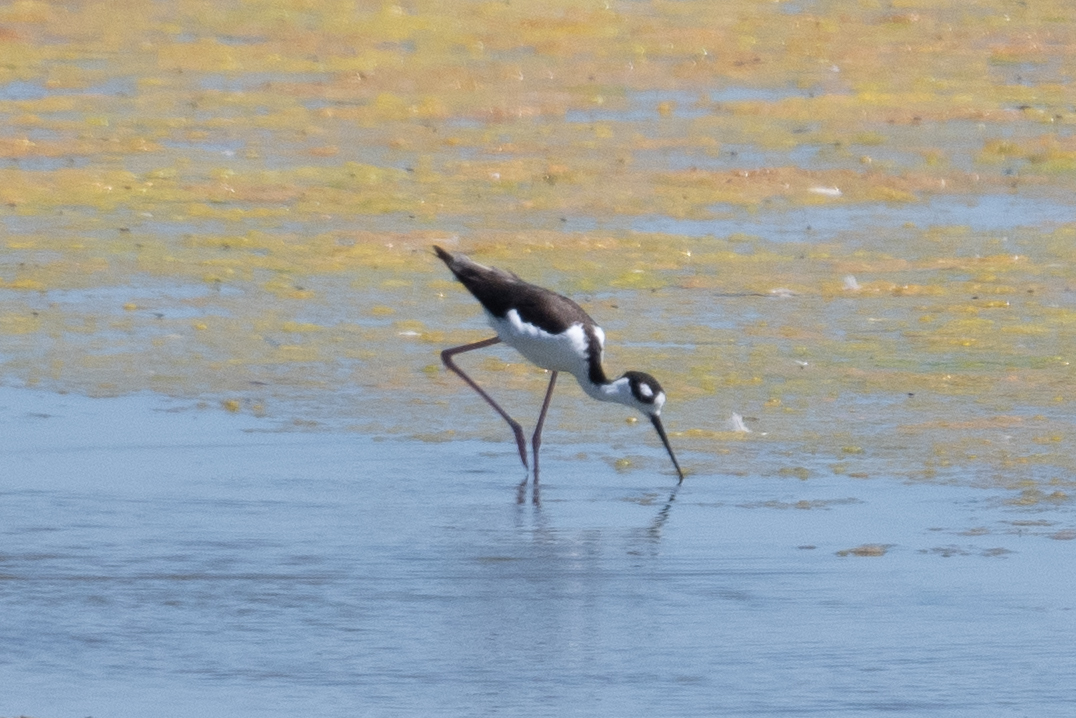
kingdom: Animalia
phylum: Chordata
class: Aves
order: Charadriiformes
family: Recurvirostridae
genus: Himantopus
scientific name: Himantopus mexicanus
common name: Black-necked stilt
